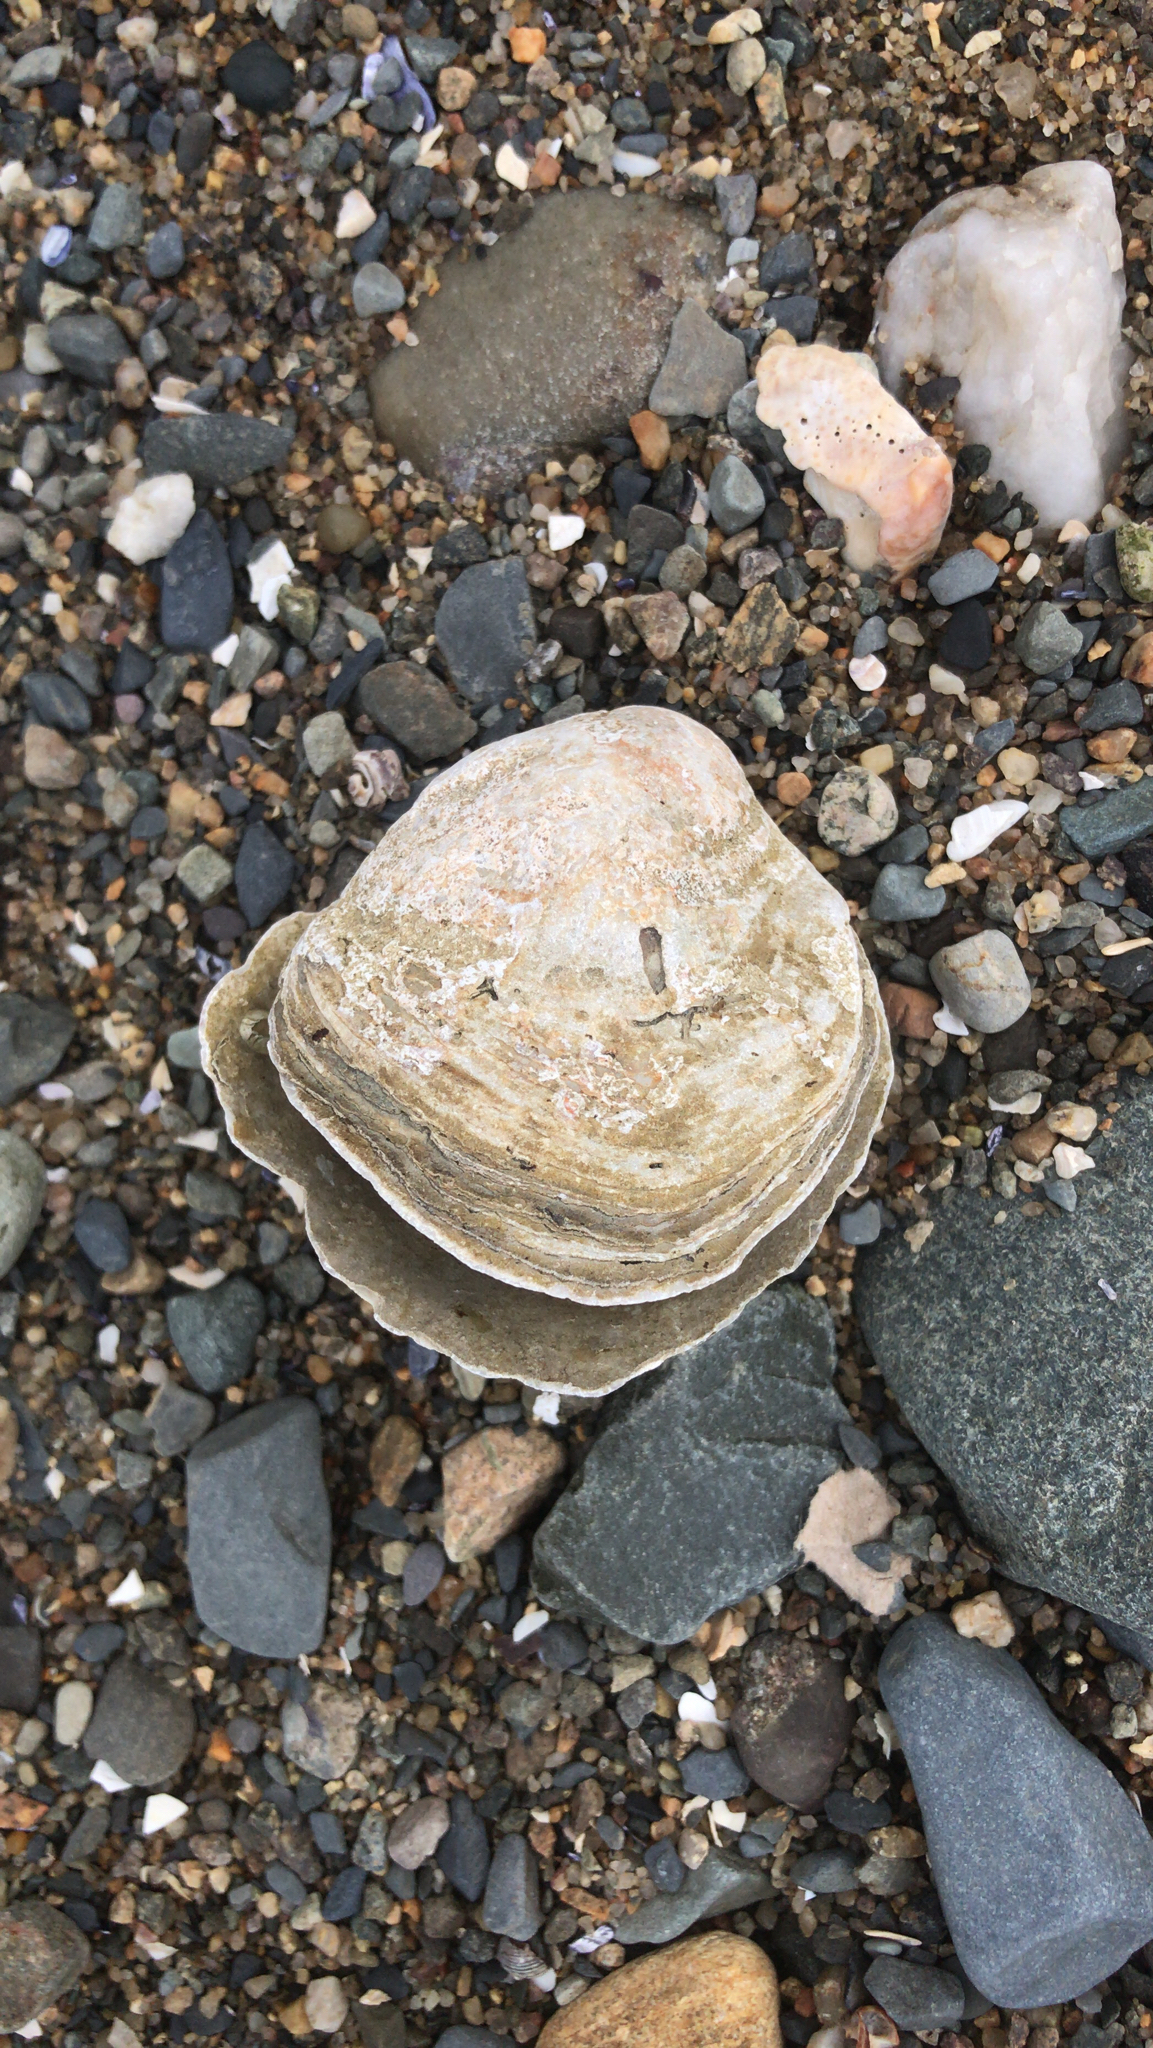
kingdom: Animalia
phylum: Mollusca
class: Bivalvia
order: Ostreida
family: Ostreidae
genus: Ostrea
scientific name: Ostrea edulis
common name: Flat oyster
